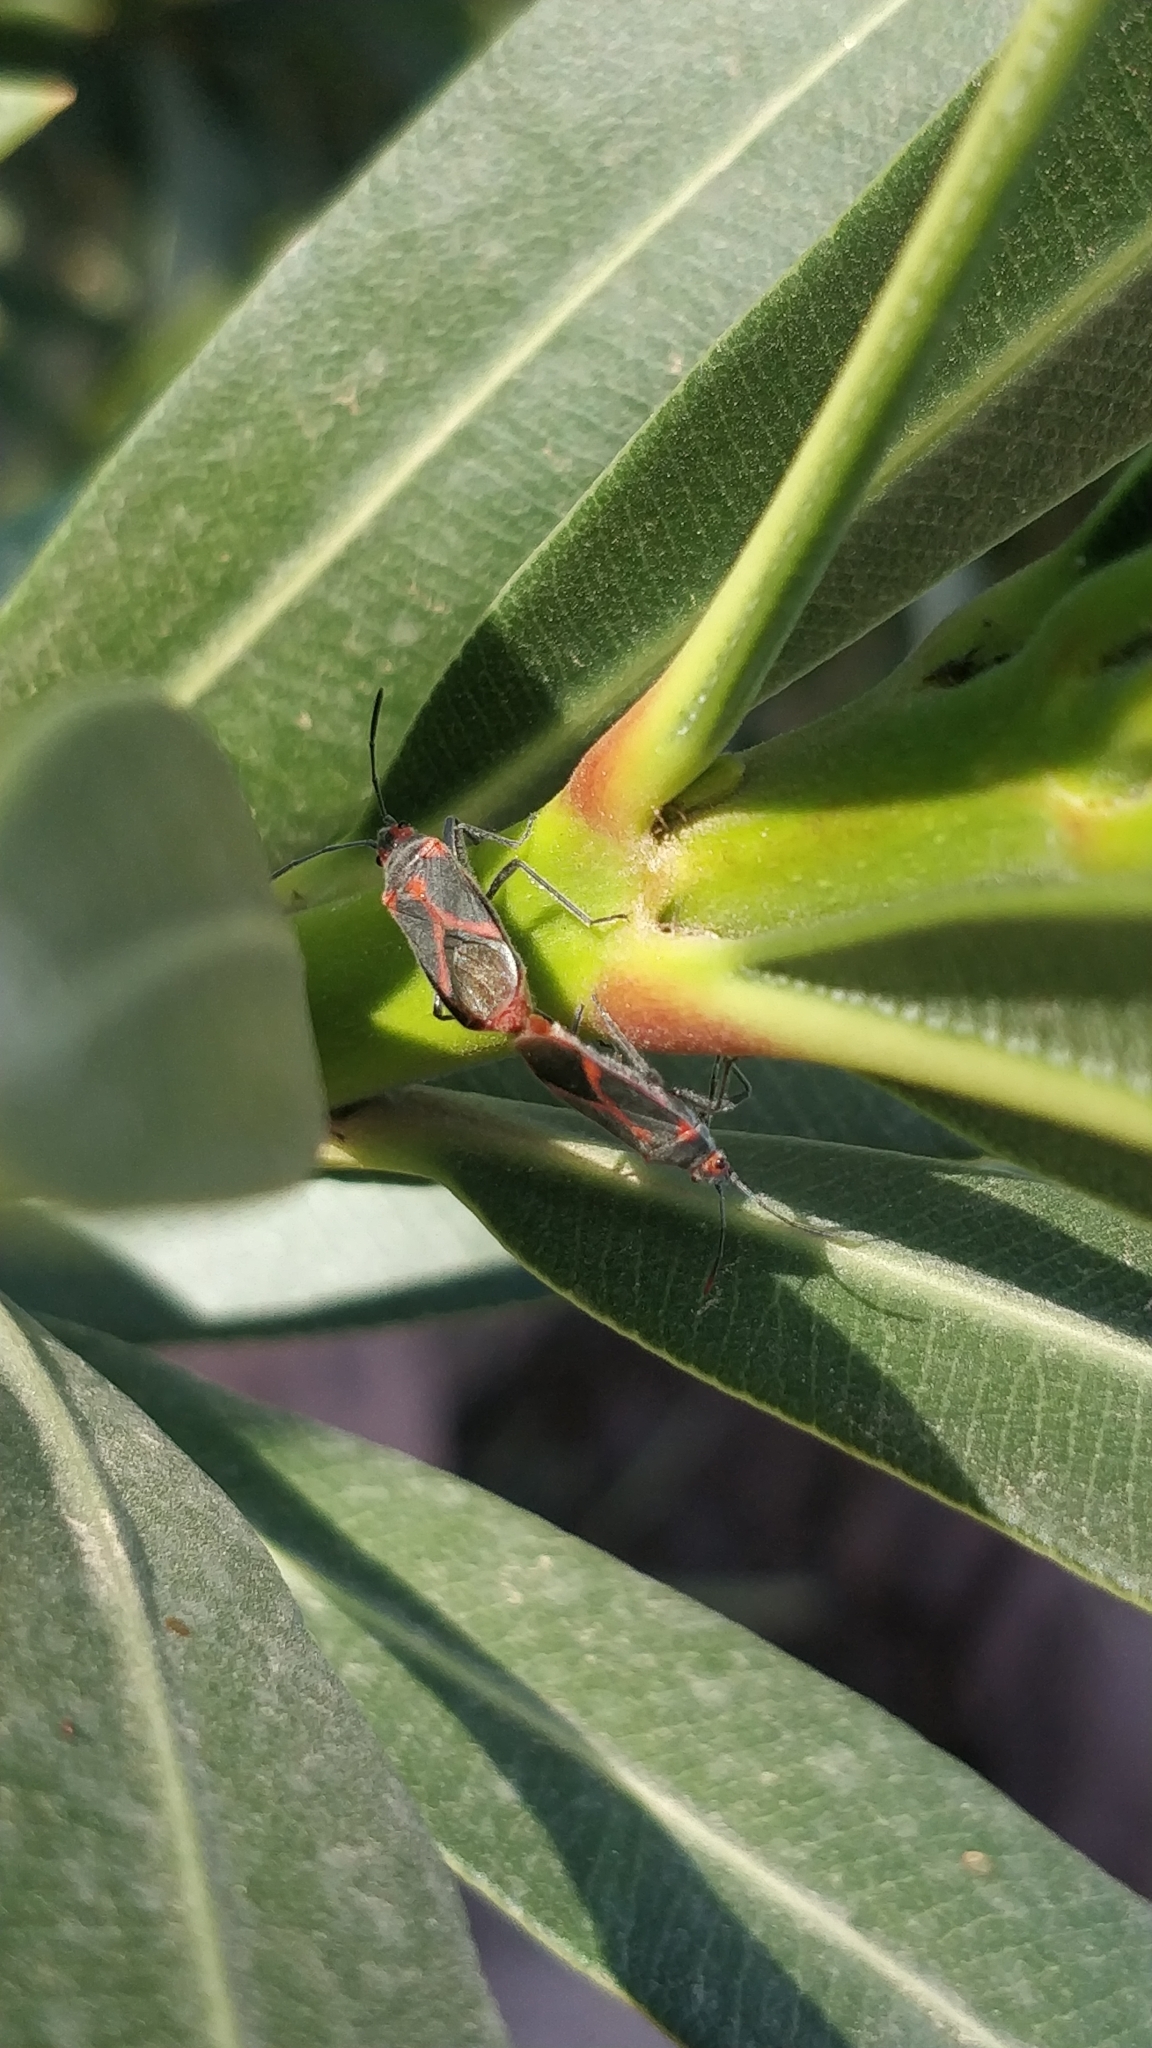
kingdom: Animalia
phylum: Arthropoda
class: Insecta
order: Hemiptera
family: Lygaeidae
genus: Caenocoris
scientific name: Caenocoris nerii
